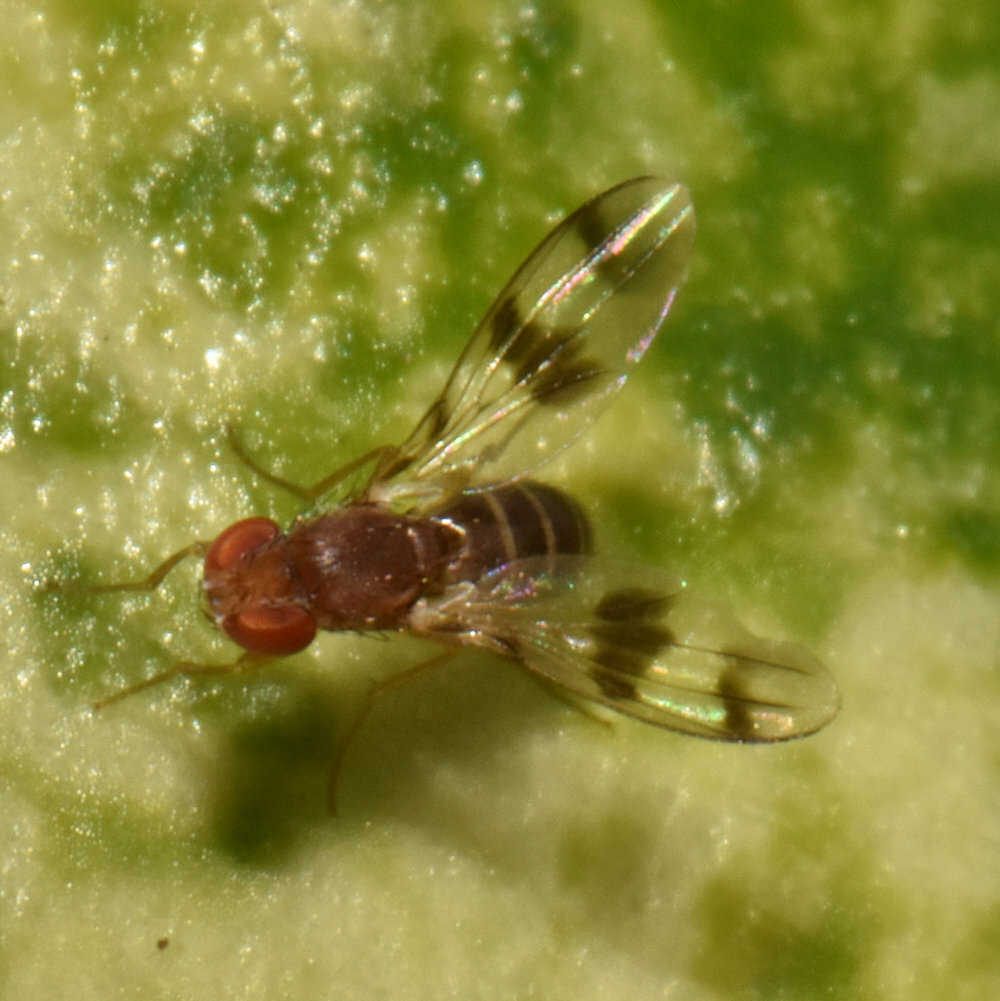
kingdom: Animalia
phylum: Arthropoda
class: Insecta
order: Diptera
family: Drosophilidae
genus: Chymomyza
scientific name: Chymomyza amoena
